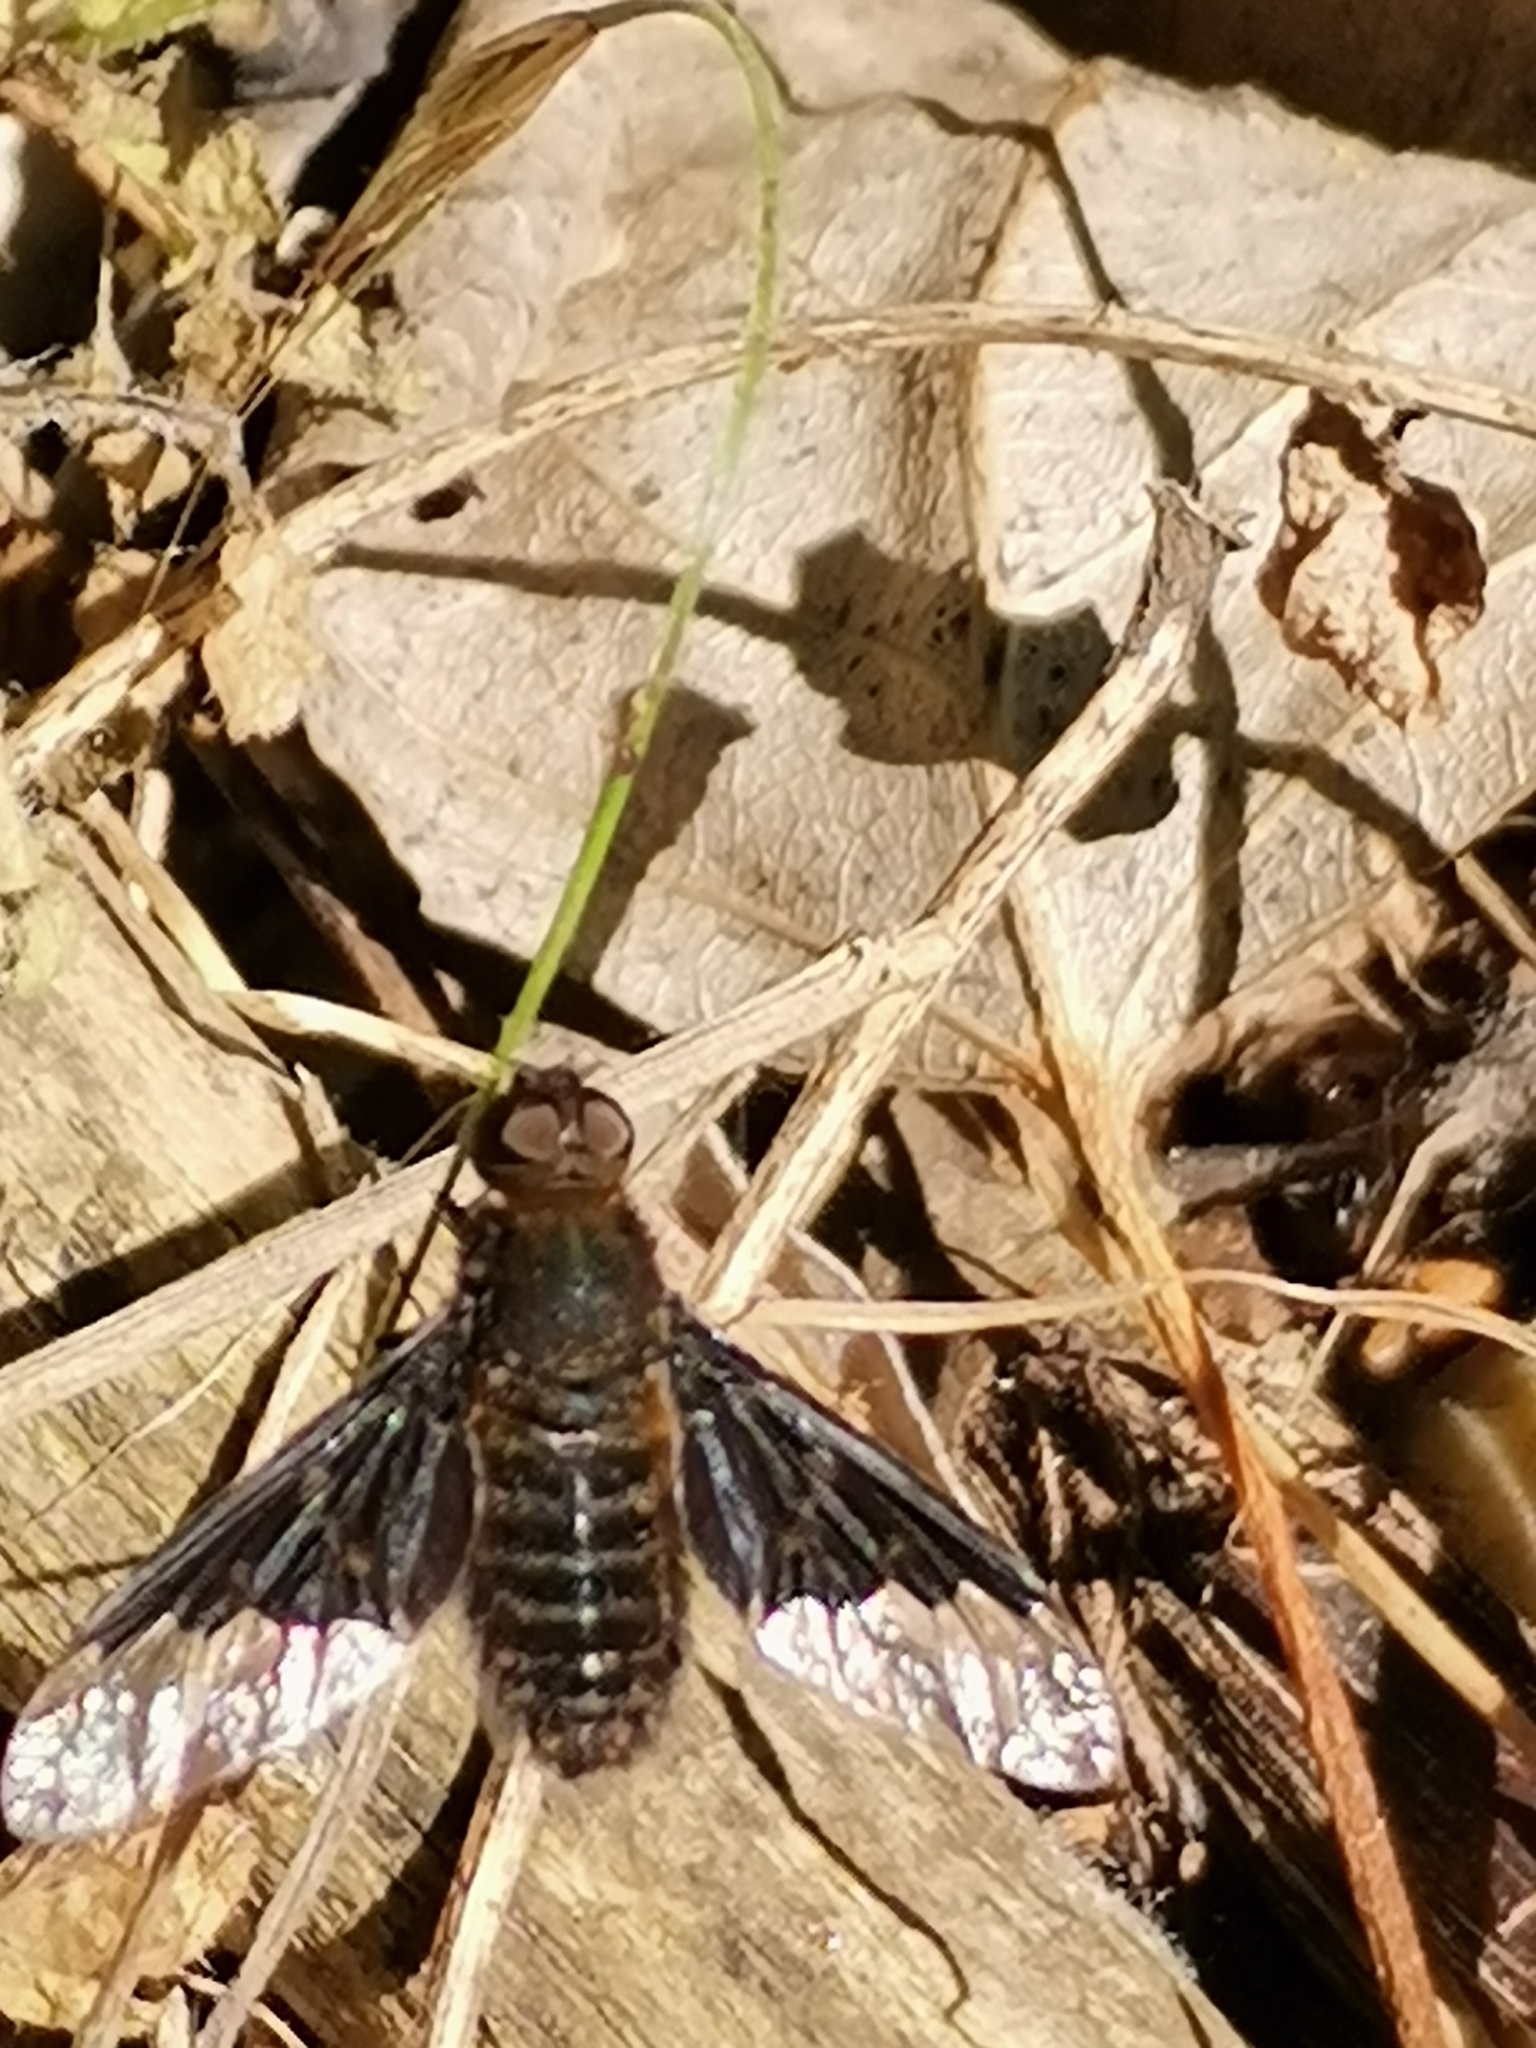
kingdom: Animalia
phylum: Arthropoda
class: Insecta
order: Diptera
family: Bombyliidae
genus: Hemipenthes
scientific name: Hemipenthes morio
